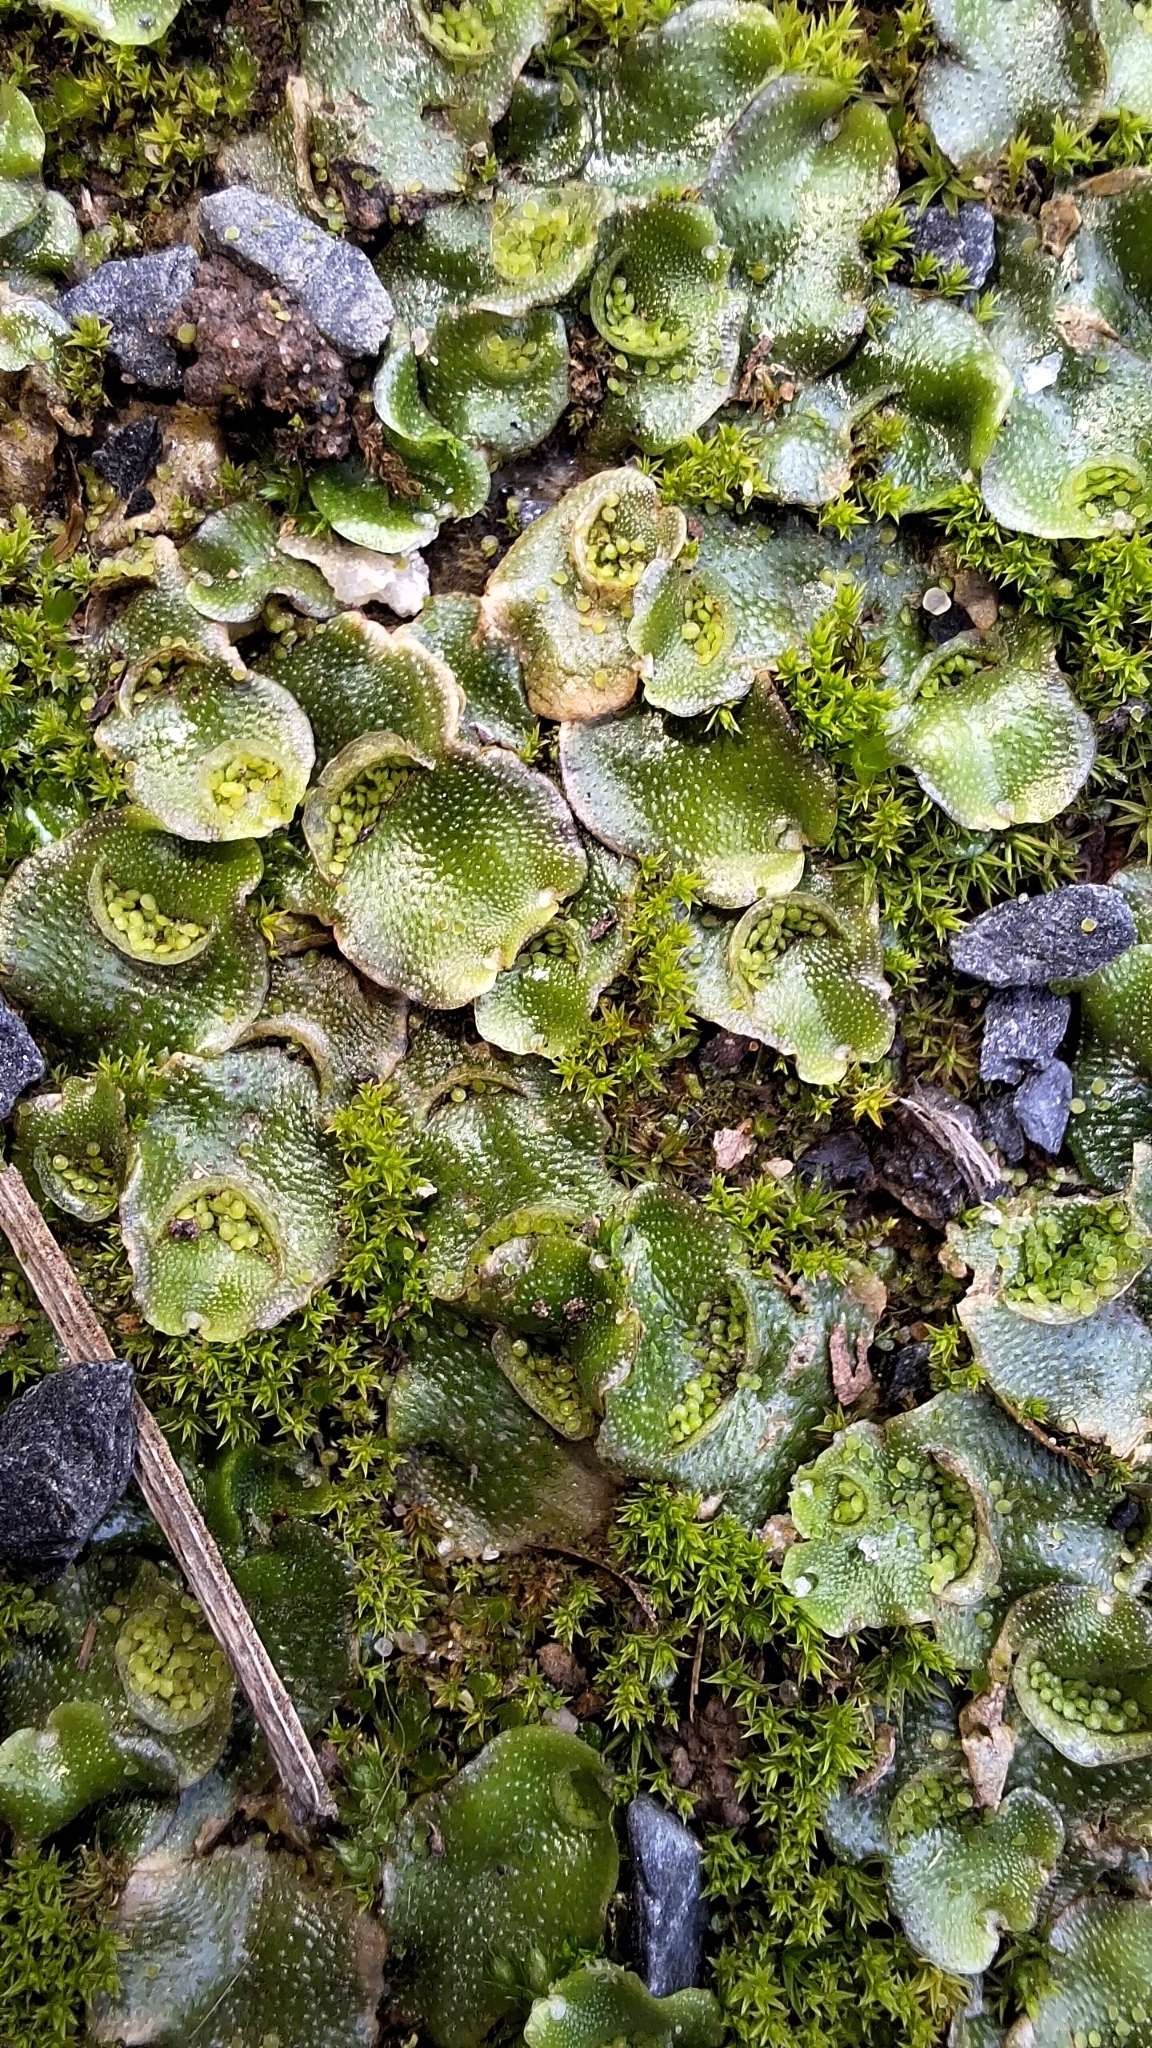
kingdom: Plantae
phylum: Marchantiophyta
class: Marchantiopsida
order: Lunulariales
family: Lunulariaceae
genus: Lunularia
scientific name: Lunularia cruciata
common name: Crescent-cup liverwort
